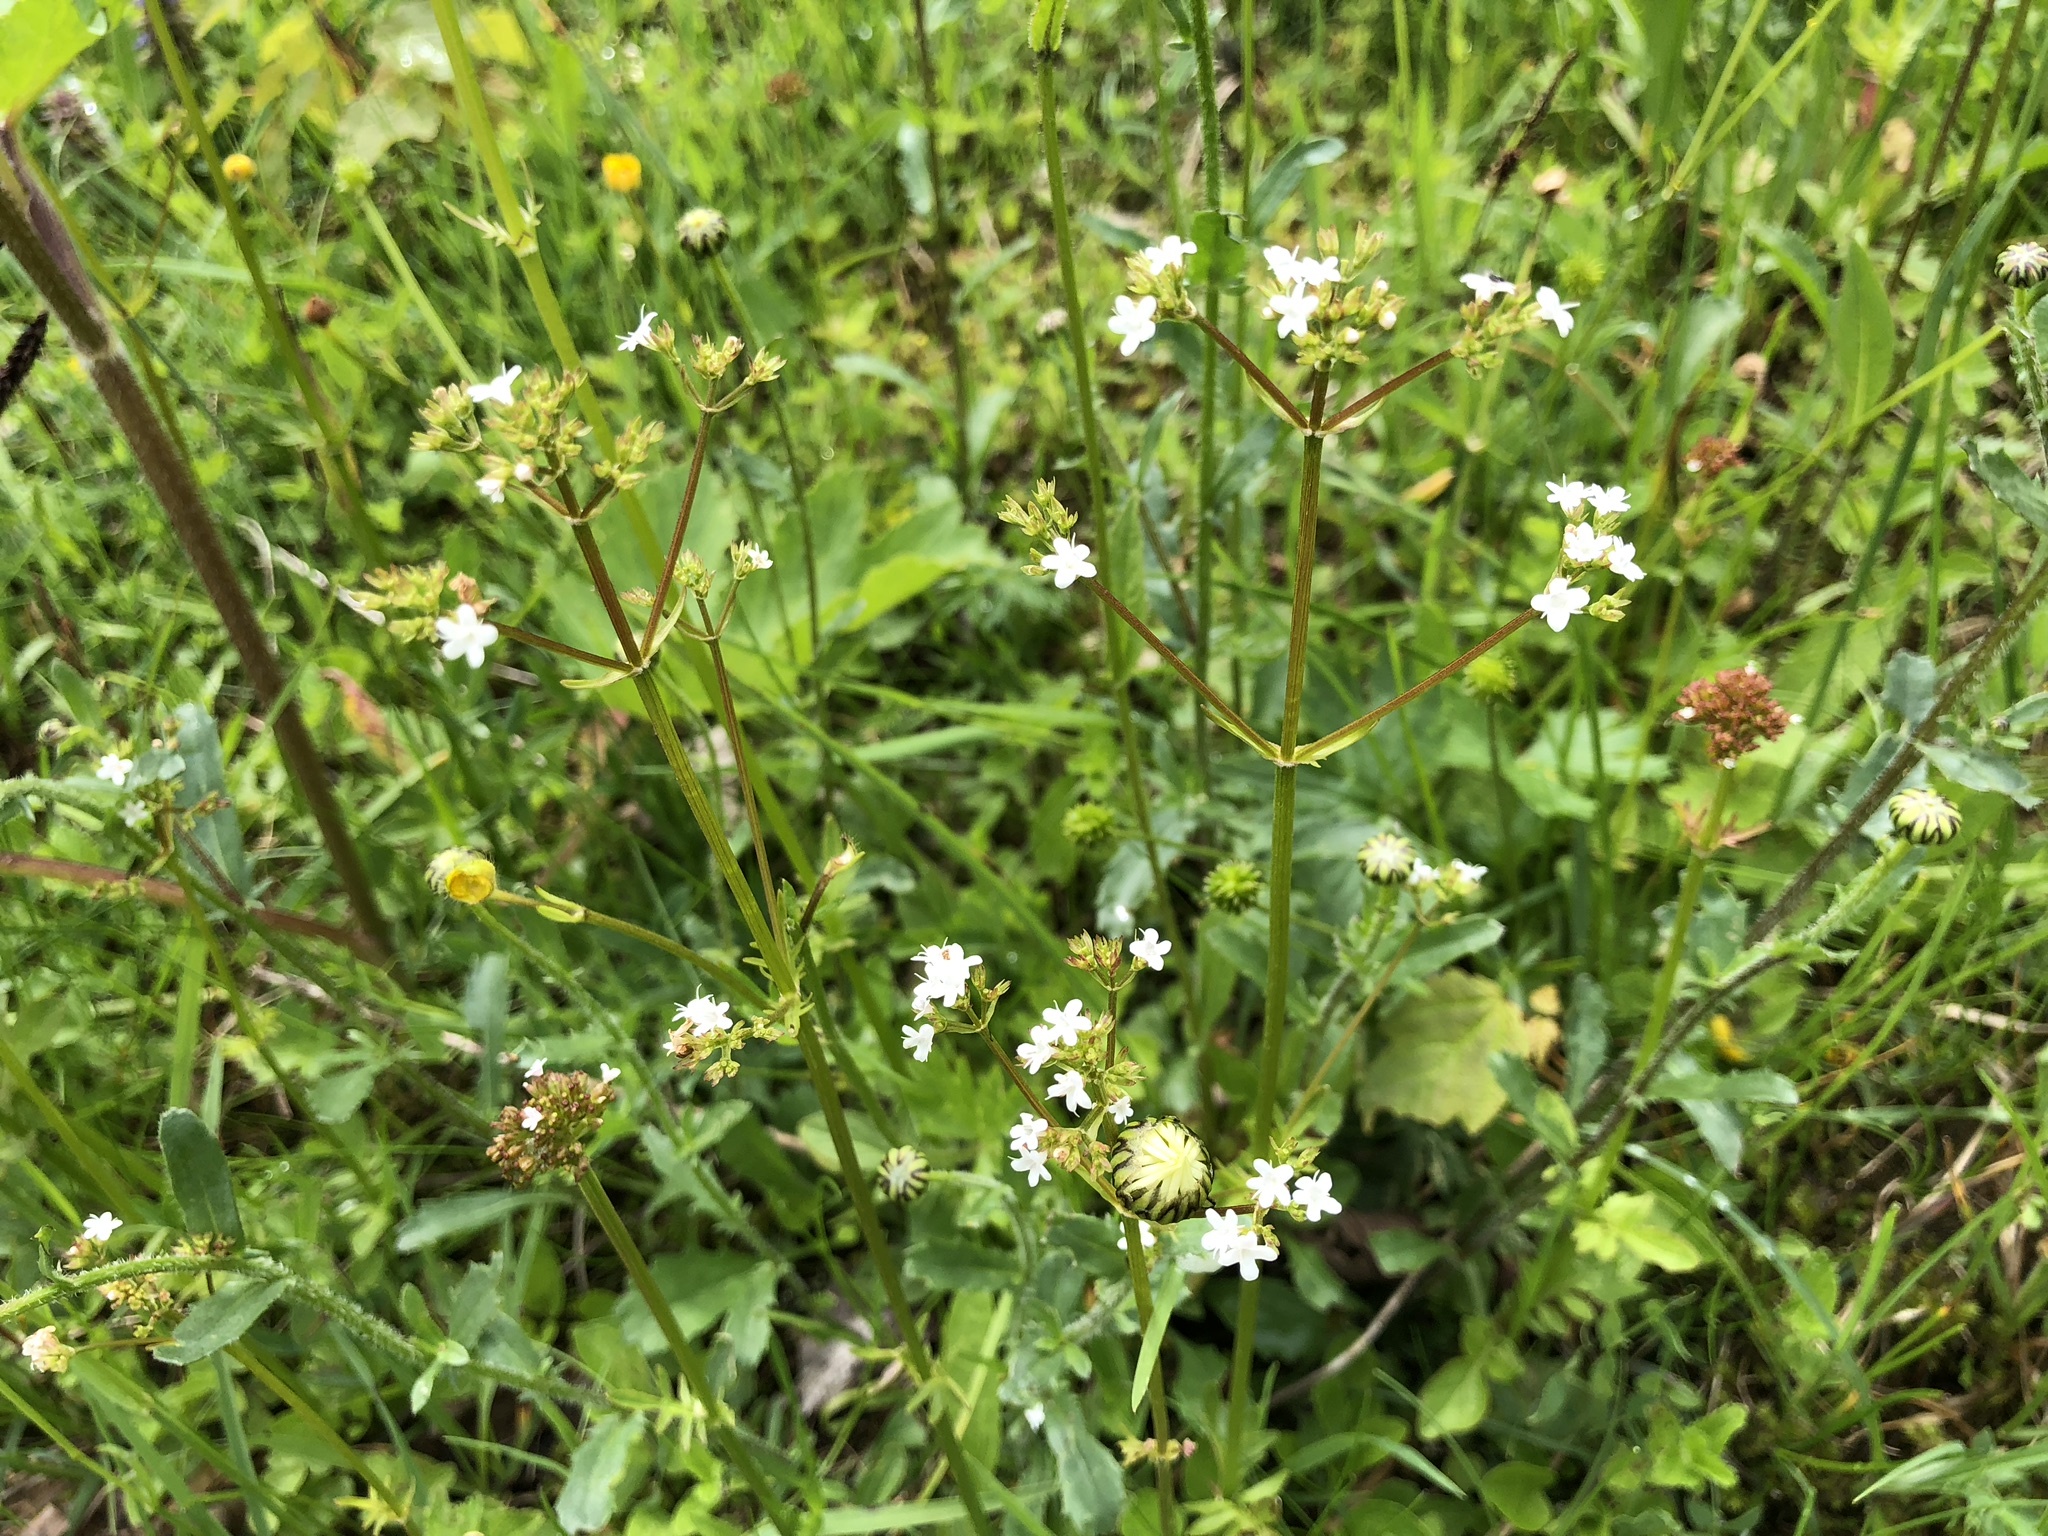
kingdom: Plantae
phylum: Tracheophyta
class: Magnoliopsida
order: Dipsacales
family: Caprifoliaceae
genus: Valeriana
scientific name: Valeriana dioica
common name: Marsh valerian
